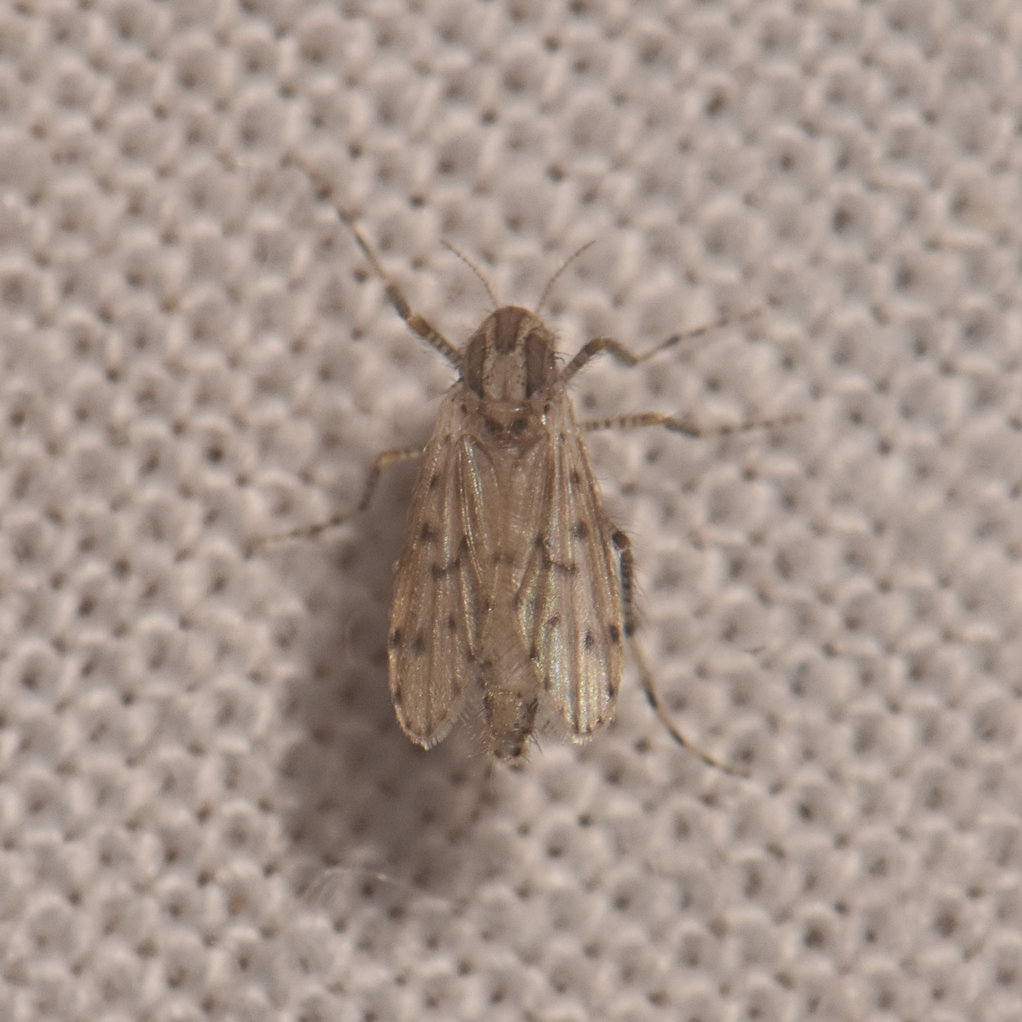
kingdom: Animalia
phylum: Arthropoda
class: Insecta
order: Diptera
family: Chaoboridae
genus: Chaoborus
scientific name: Chaoborus punctipennis
